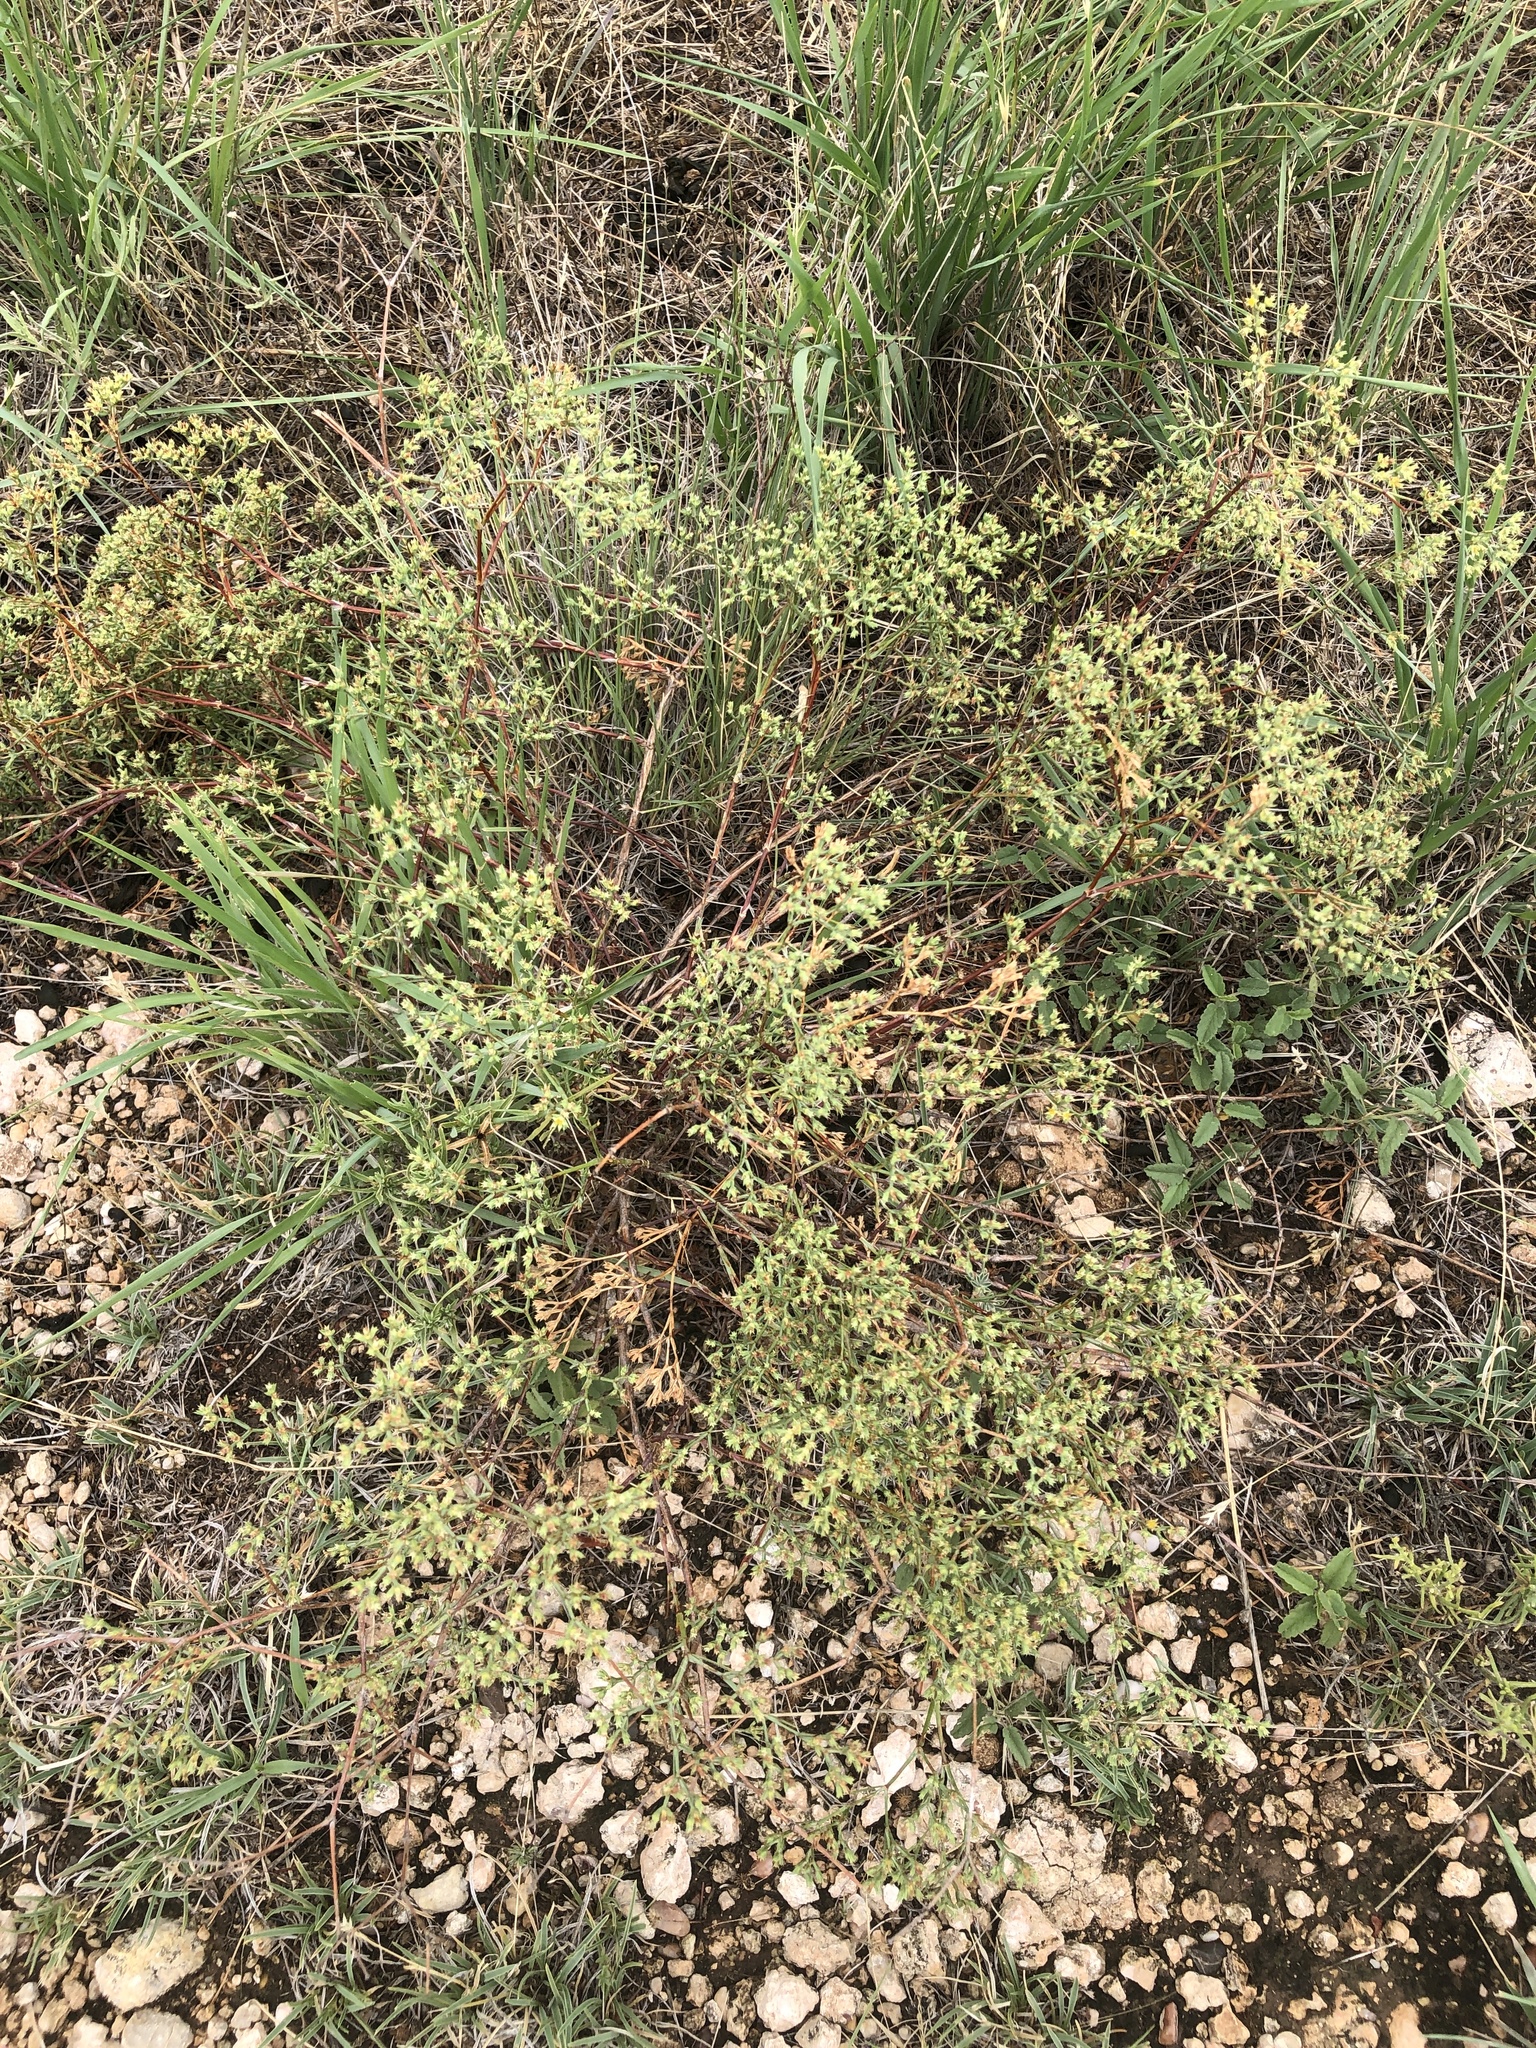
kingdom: Plantae
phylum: Tracheophyta
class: Magnoliopsida
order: Caryophyllales
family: Caryophyllaceae
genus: Paronychia
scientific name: Paronychia jamesii
